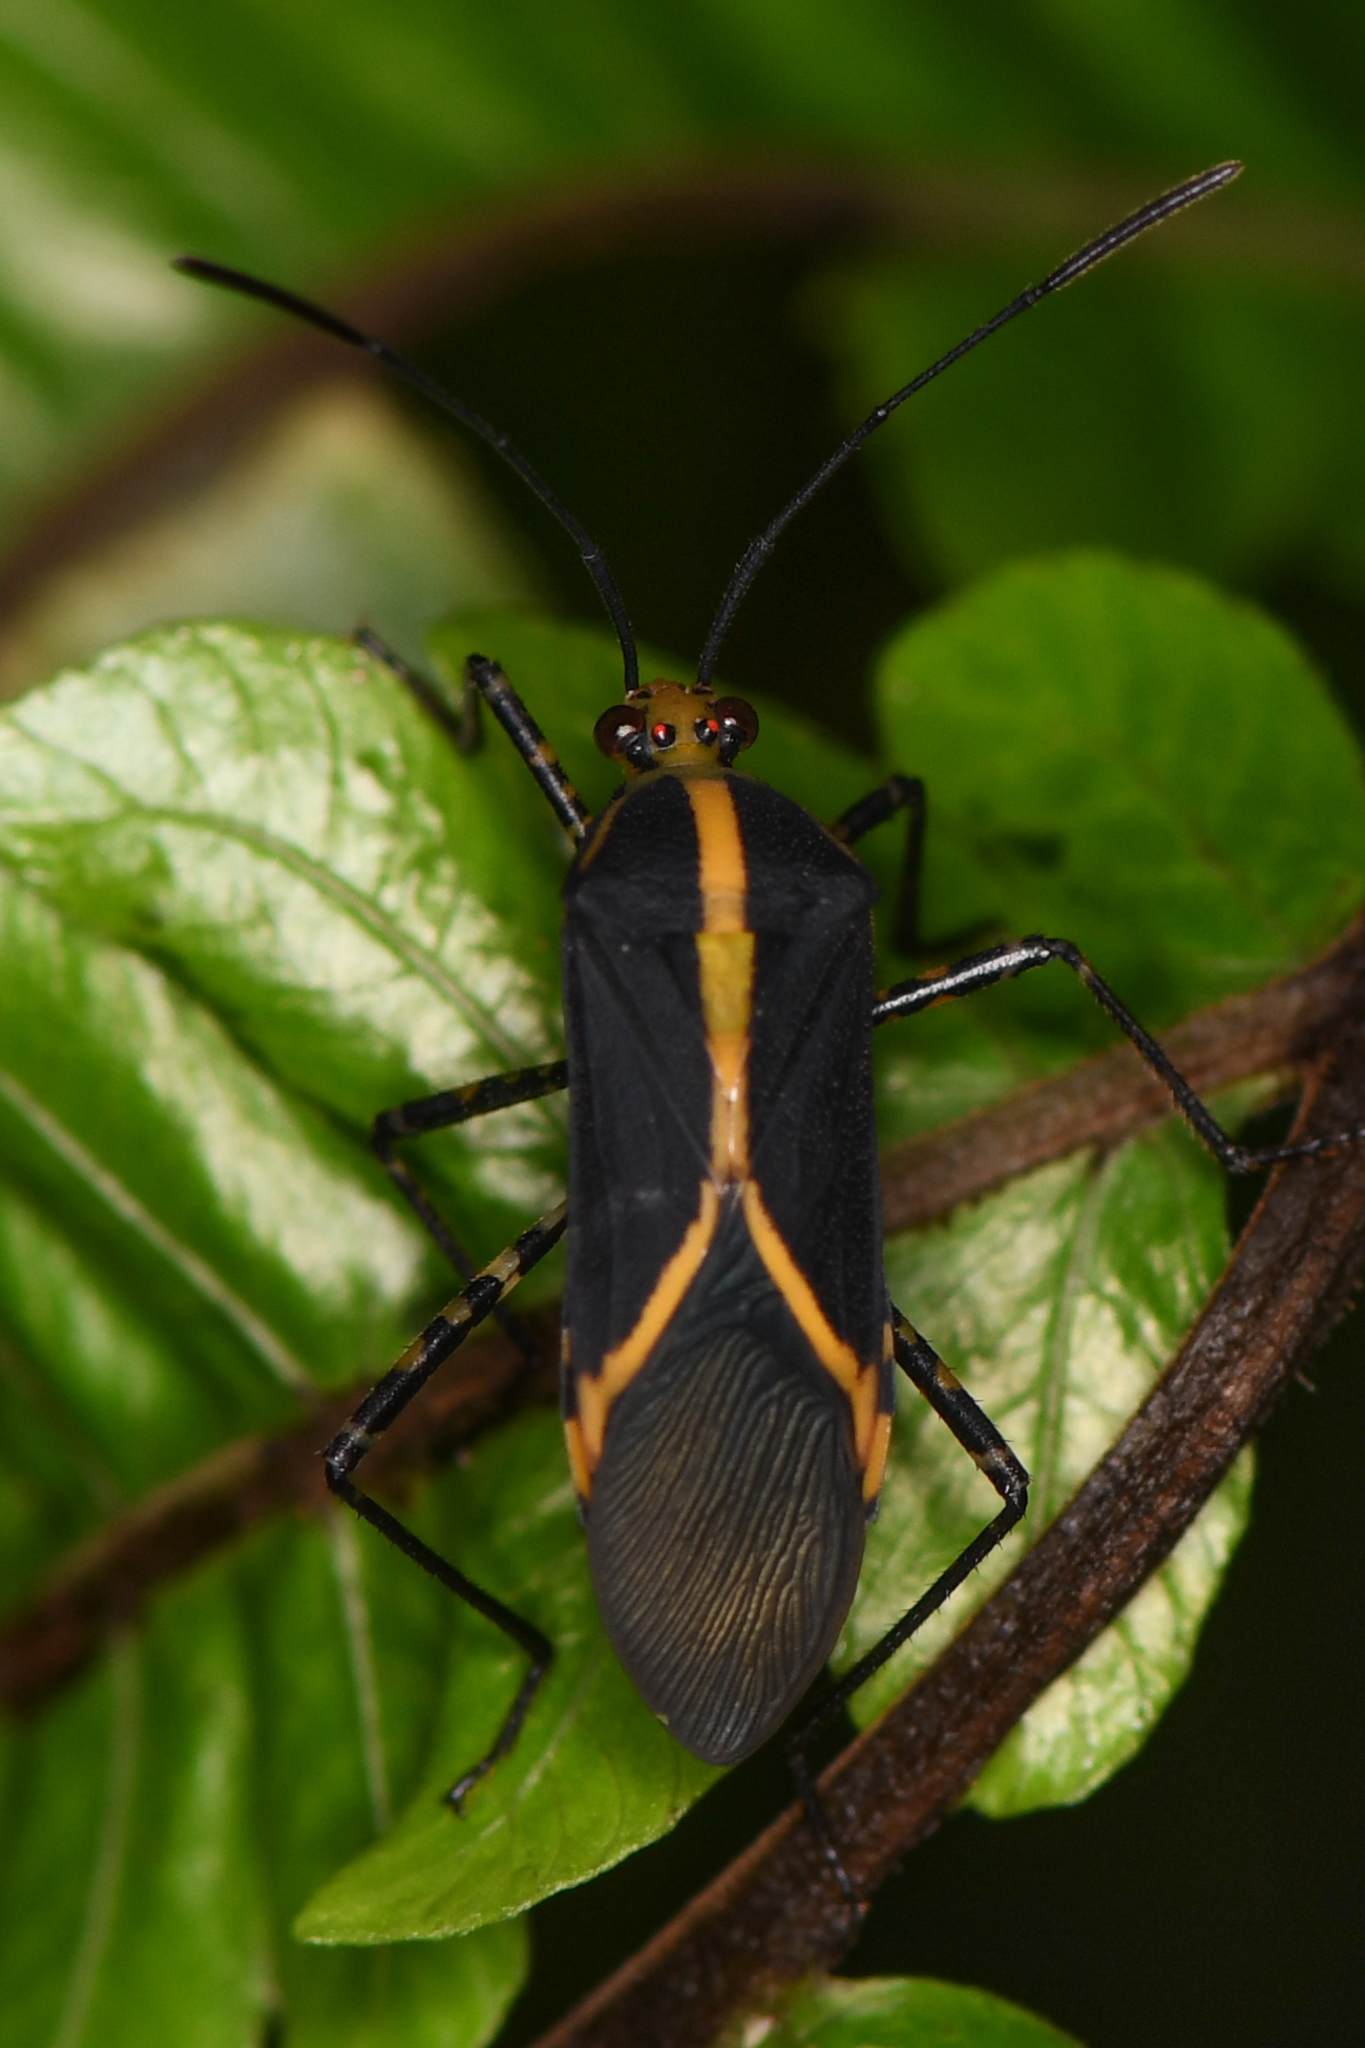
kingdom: Animalia
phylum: Arthropoda
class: Insecta
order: Hemiptera
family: Coreidae
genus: Hypselonotus
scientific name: Hypselonotus linea
